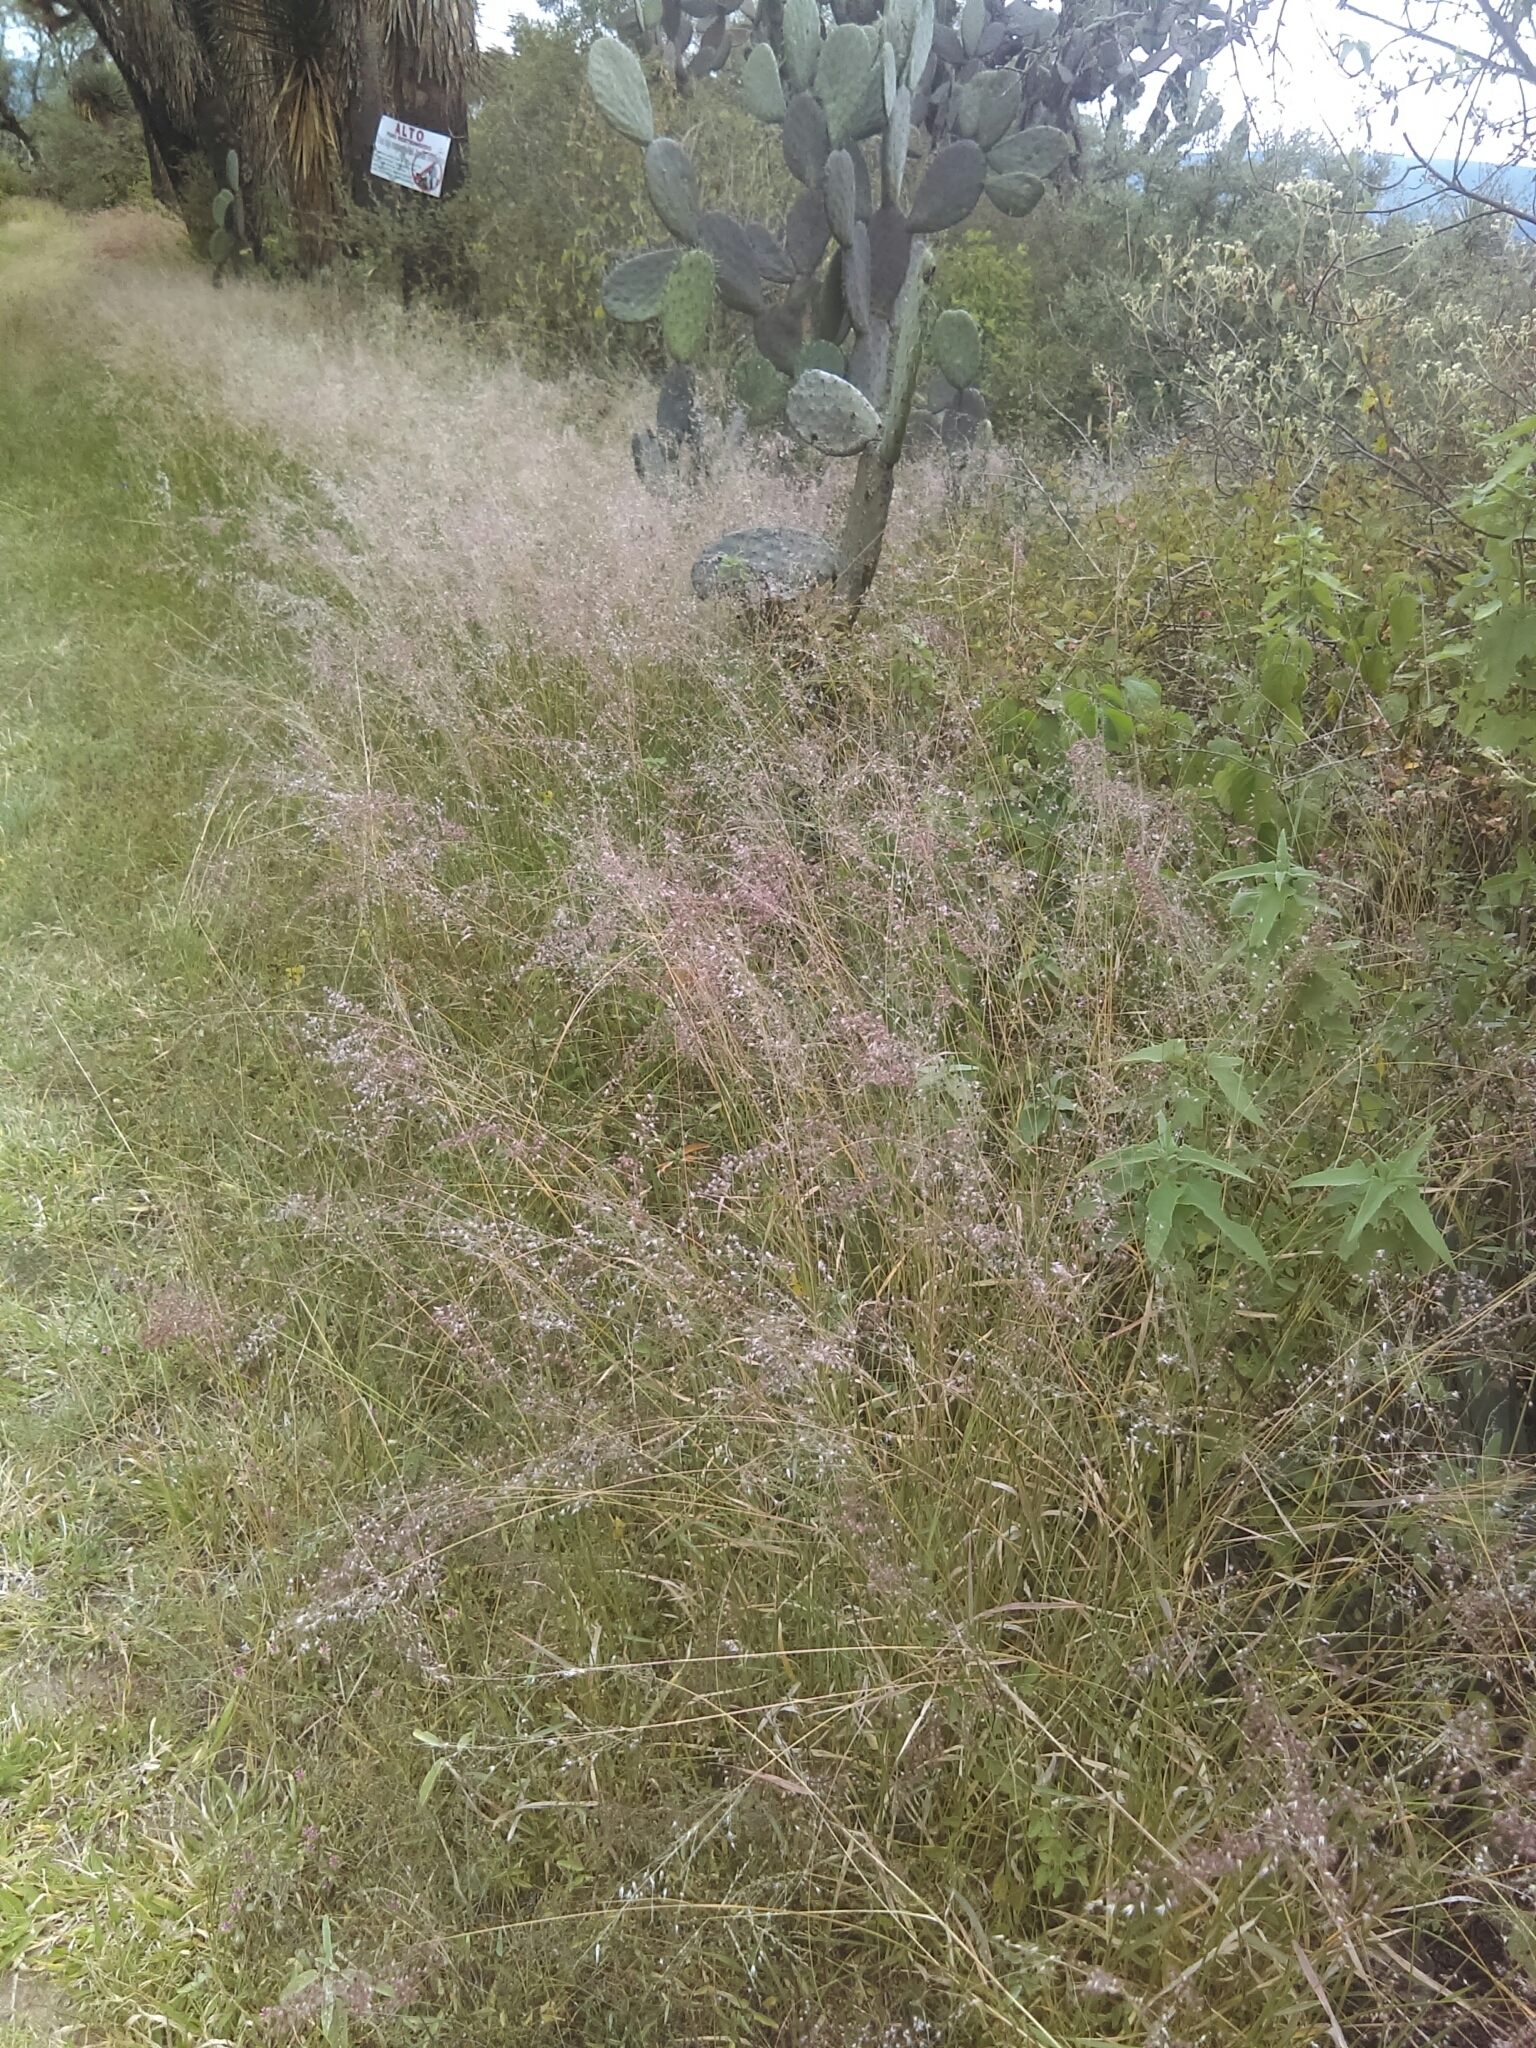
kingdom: Plantae
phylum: Tracheophyta
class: Liliopsida
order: Poales
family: Poaceae
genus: Melinis
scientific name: Melinis repens
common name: Rose natal grass
